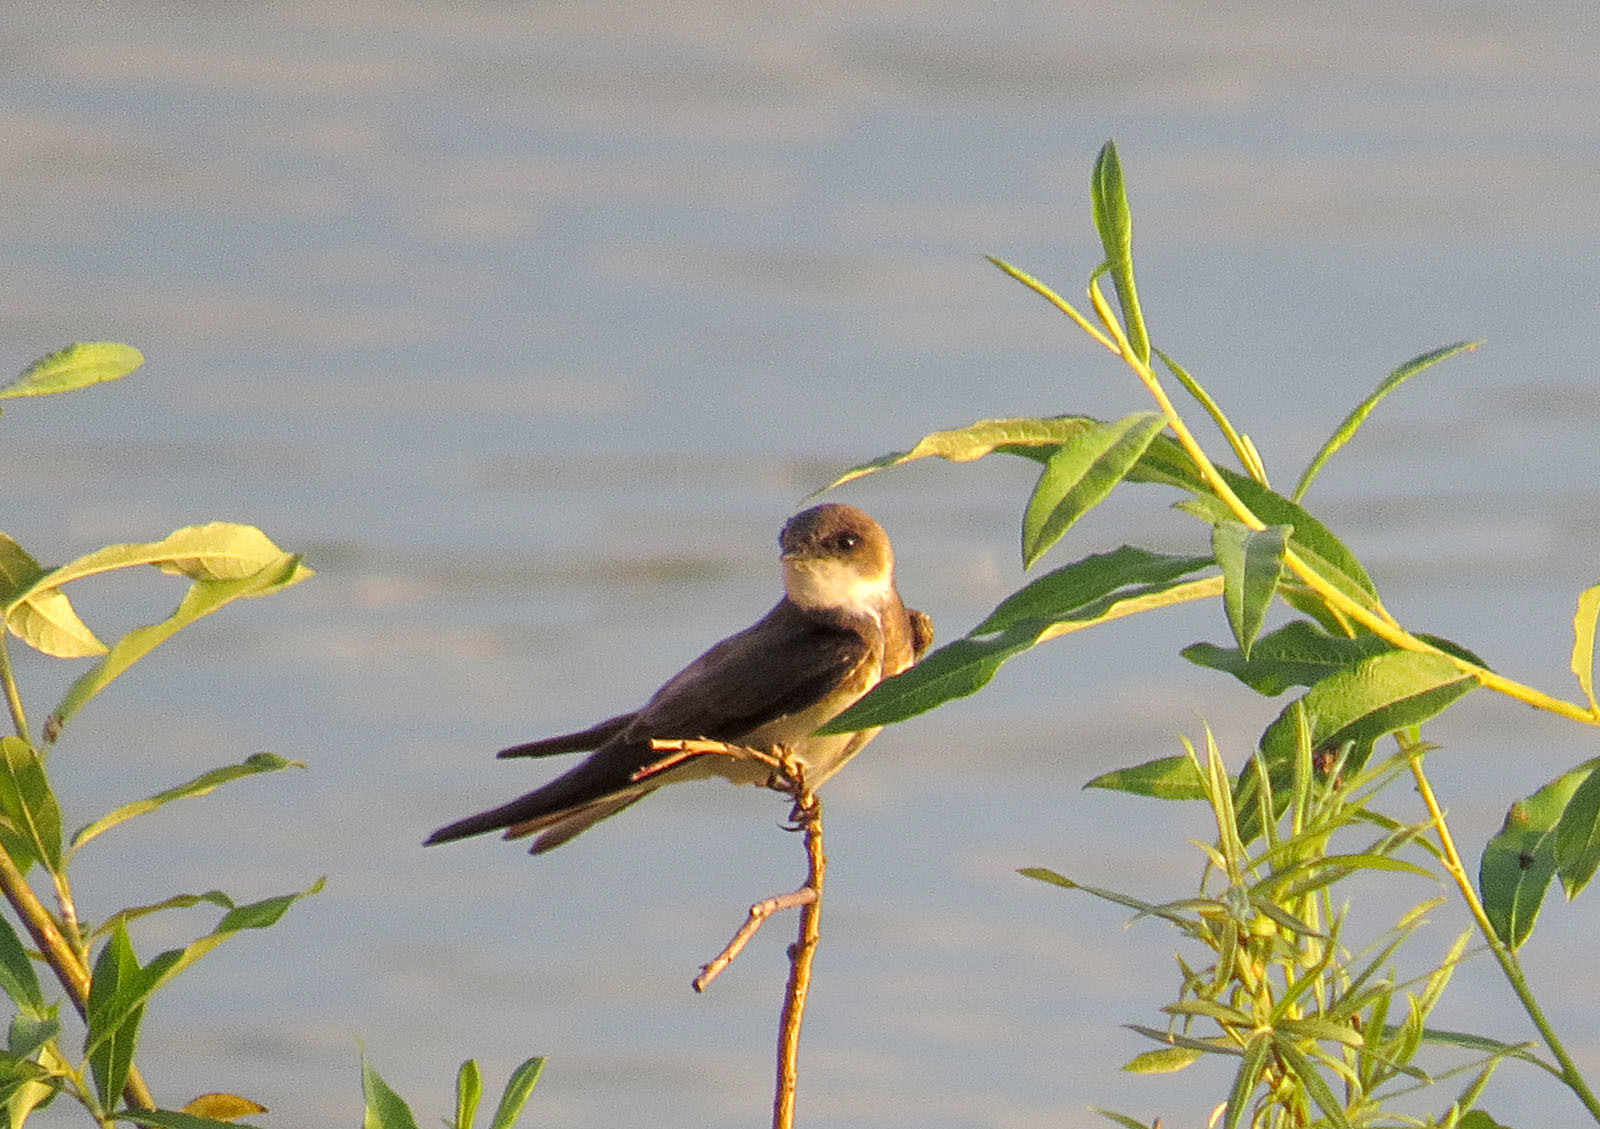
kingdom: Animalia
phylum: Chordata
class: Aves
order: Passeriformes
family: Hirundinidae
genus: Riparia
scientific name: Riparia riparia
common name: Sand martin
